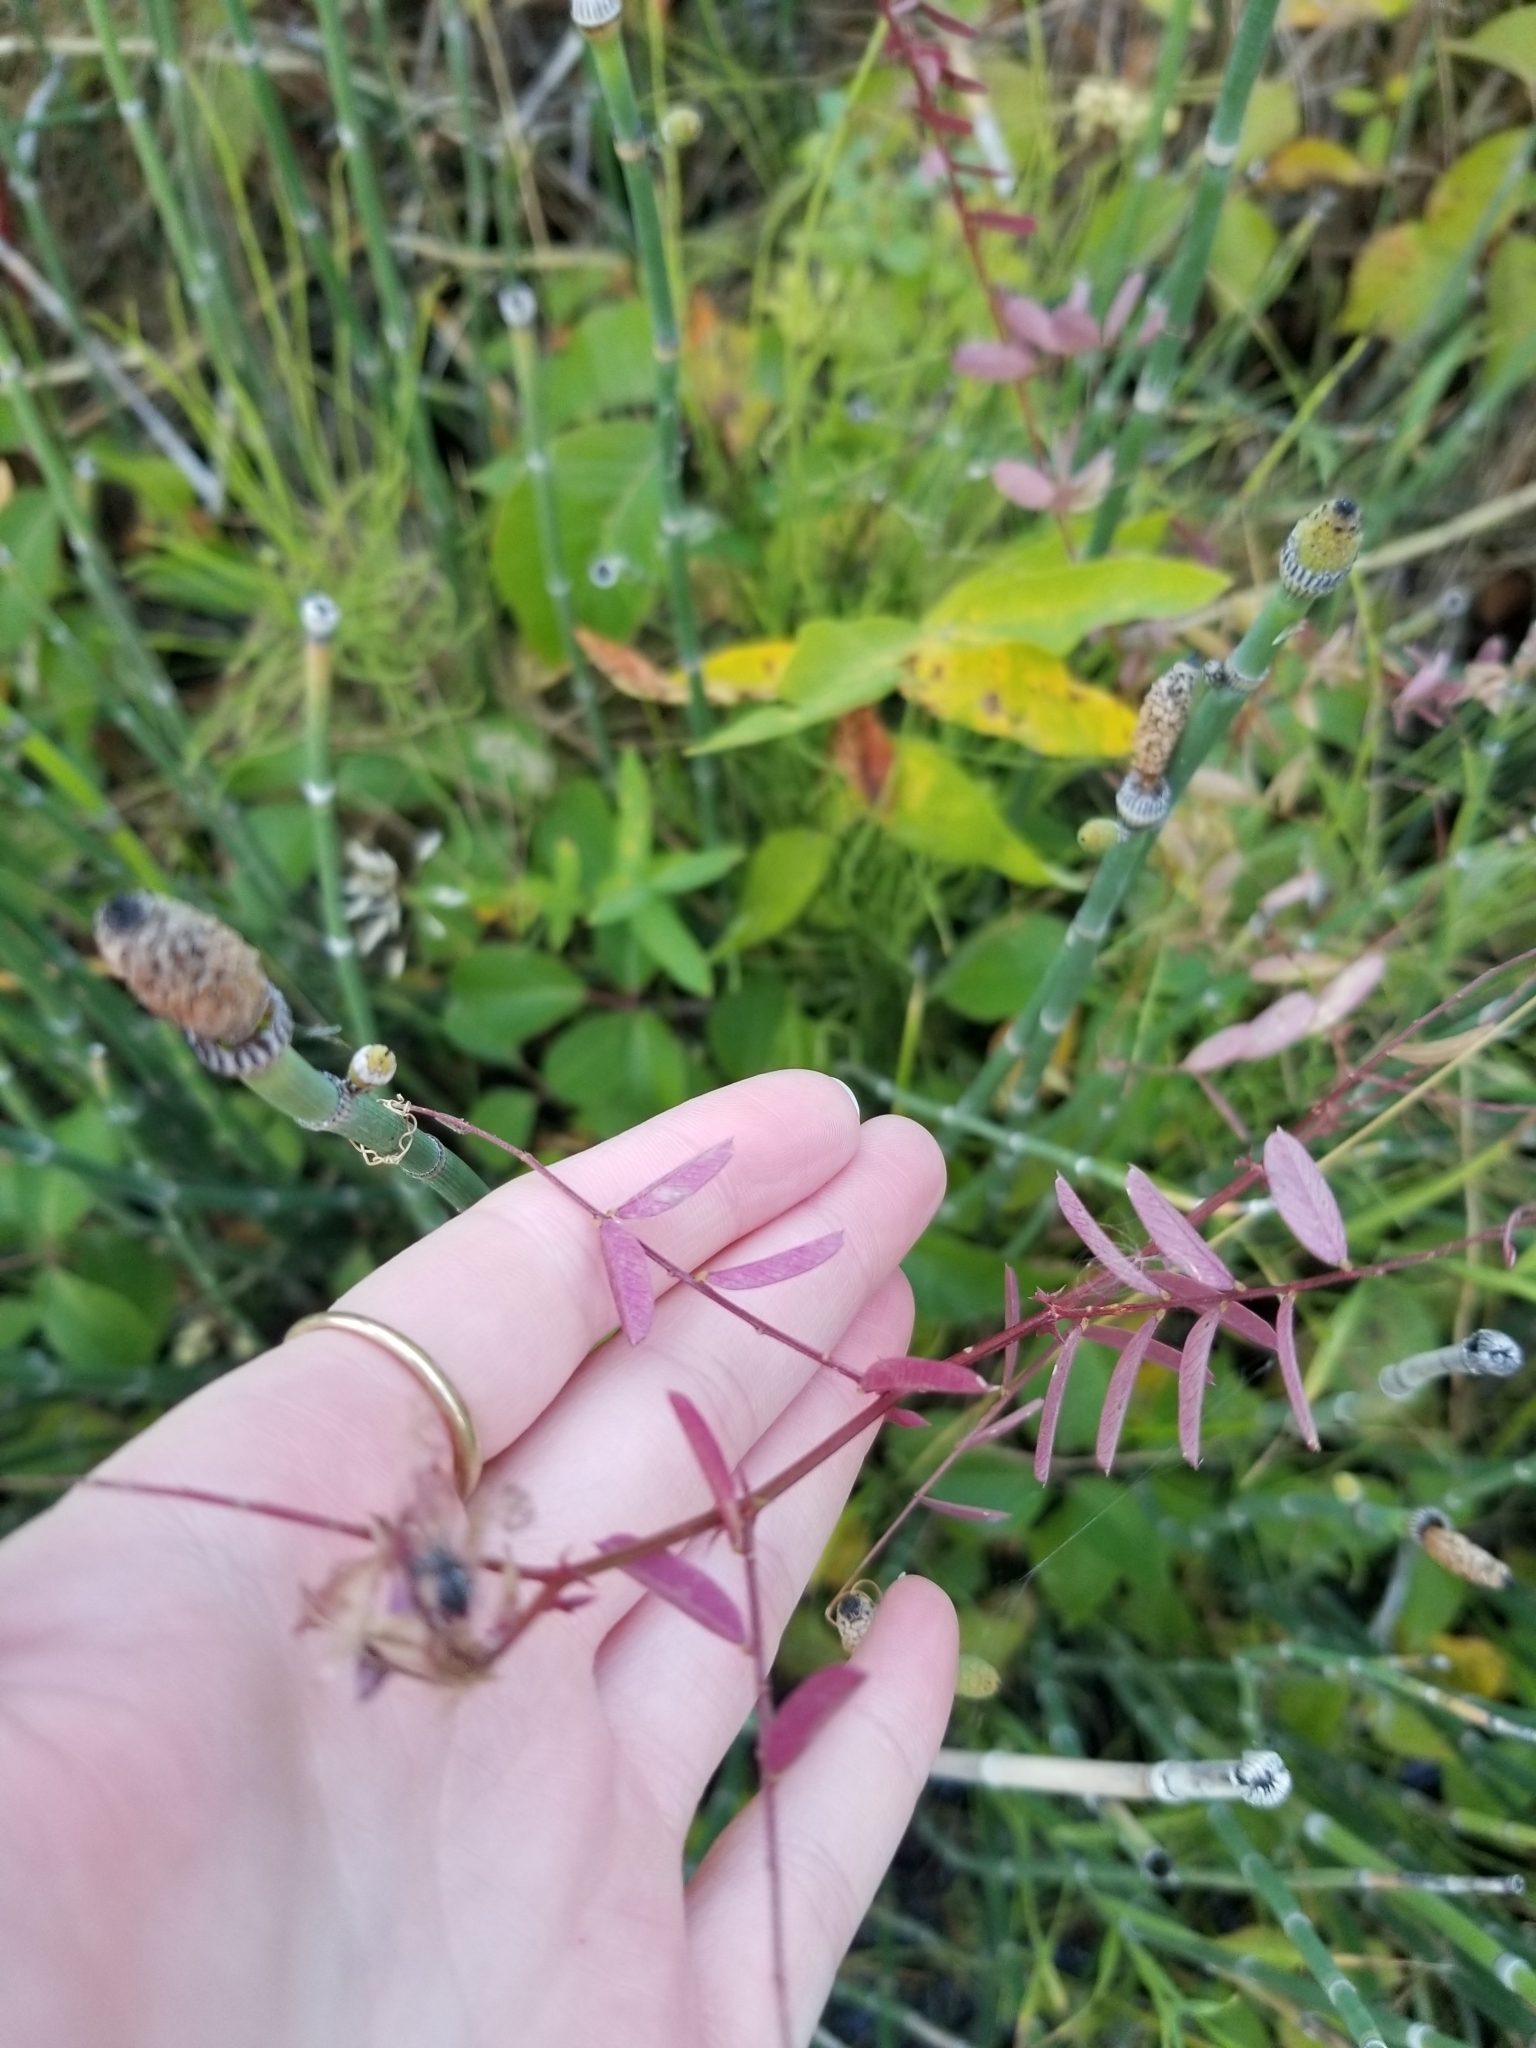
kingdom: Plantae
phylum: Tracheophyta
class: Magnoliopsida
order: Fabales
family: Fabaceae
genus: Vicia
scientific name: Vicia americana
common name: American vetch
